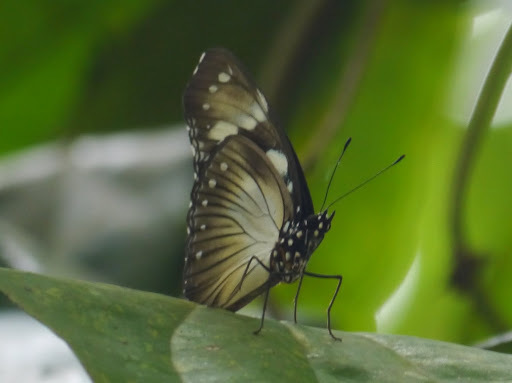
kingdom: Animalia
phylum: Arthropoda
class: Insecta
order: Lepidoptera
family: Nymphalidae
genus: Hypolimnas
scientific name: Hypolimnas dubius
